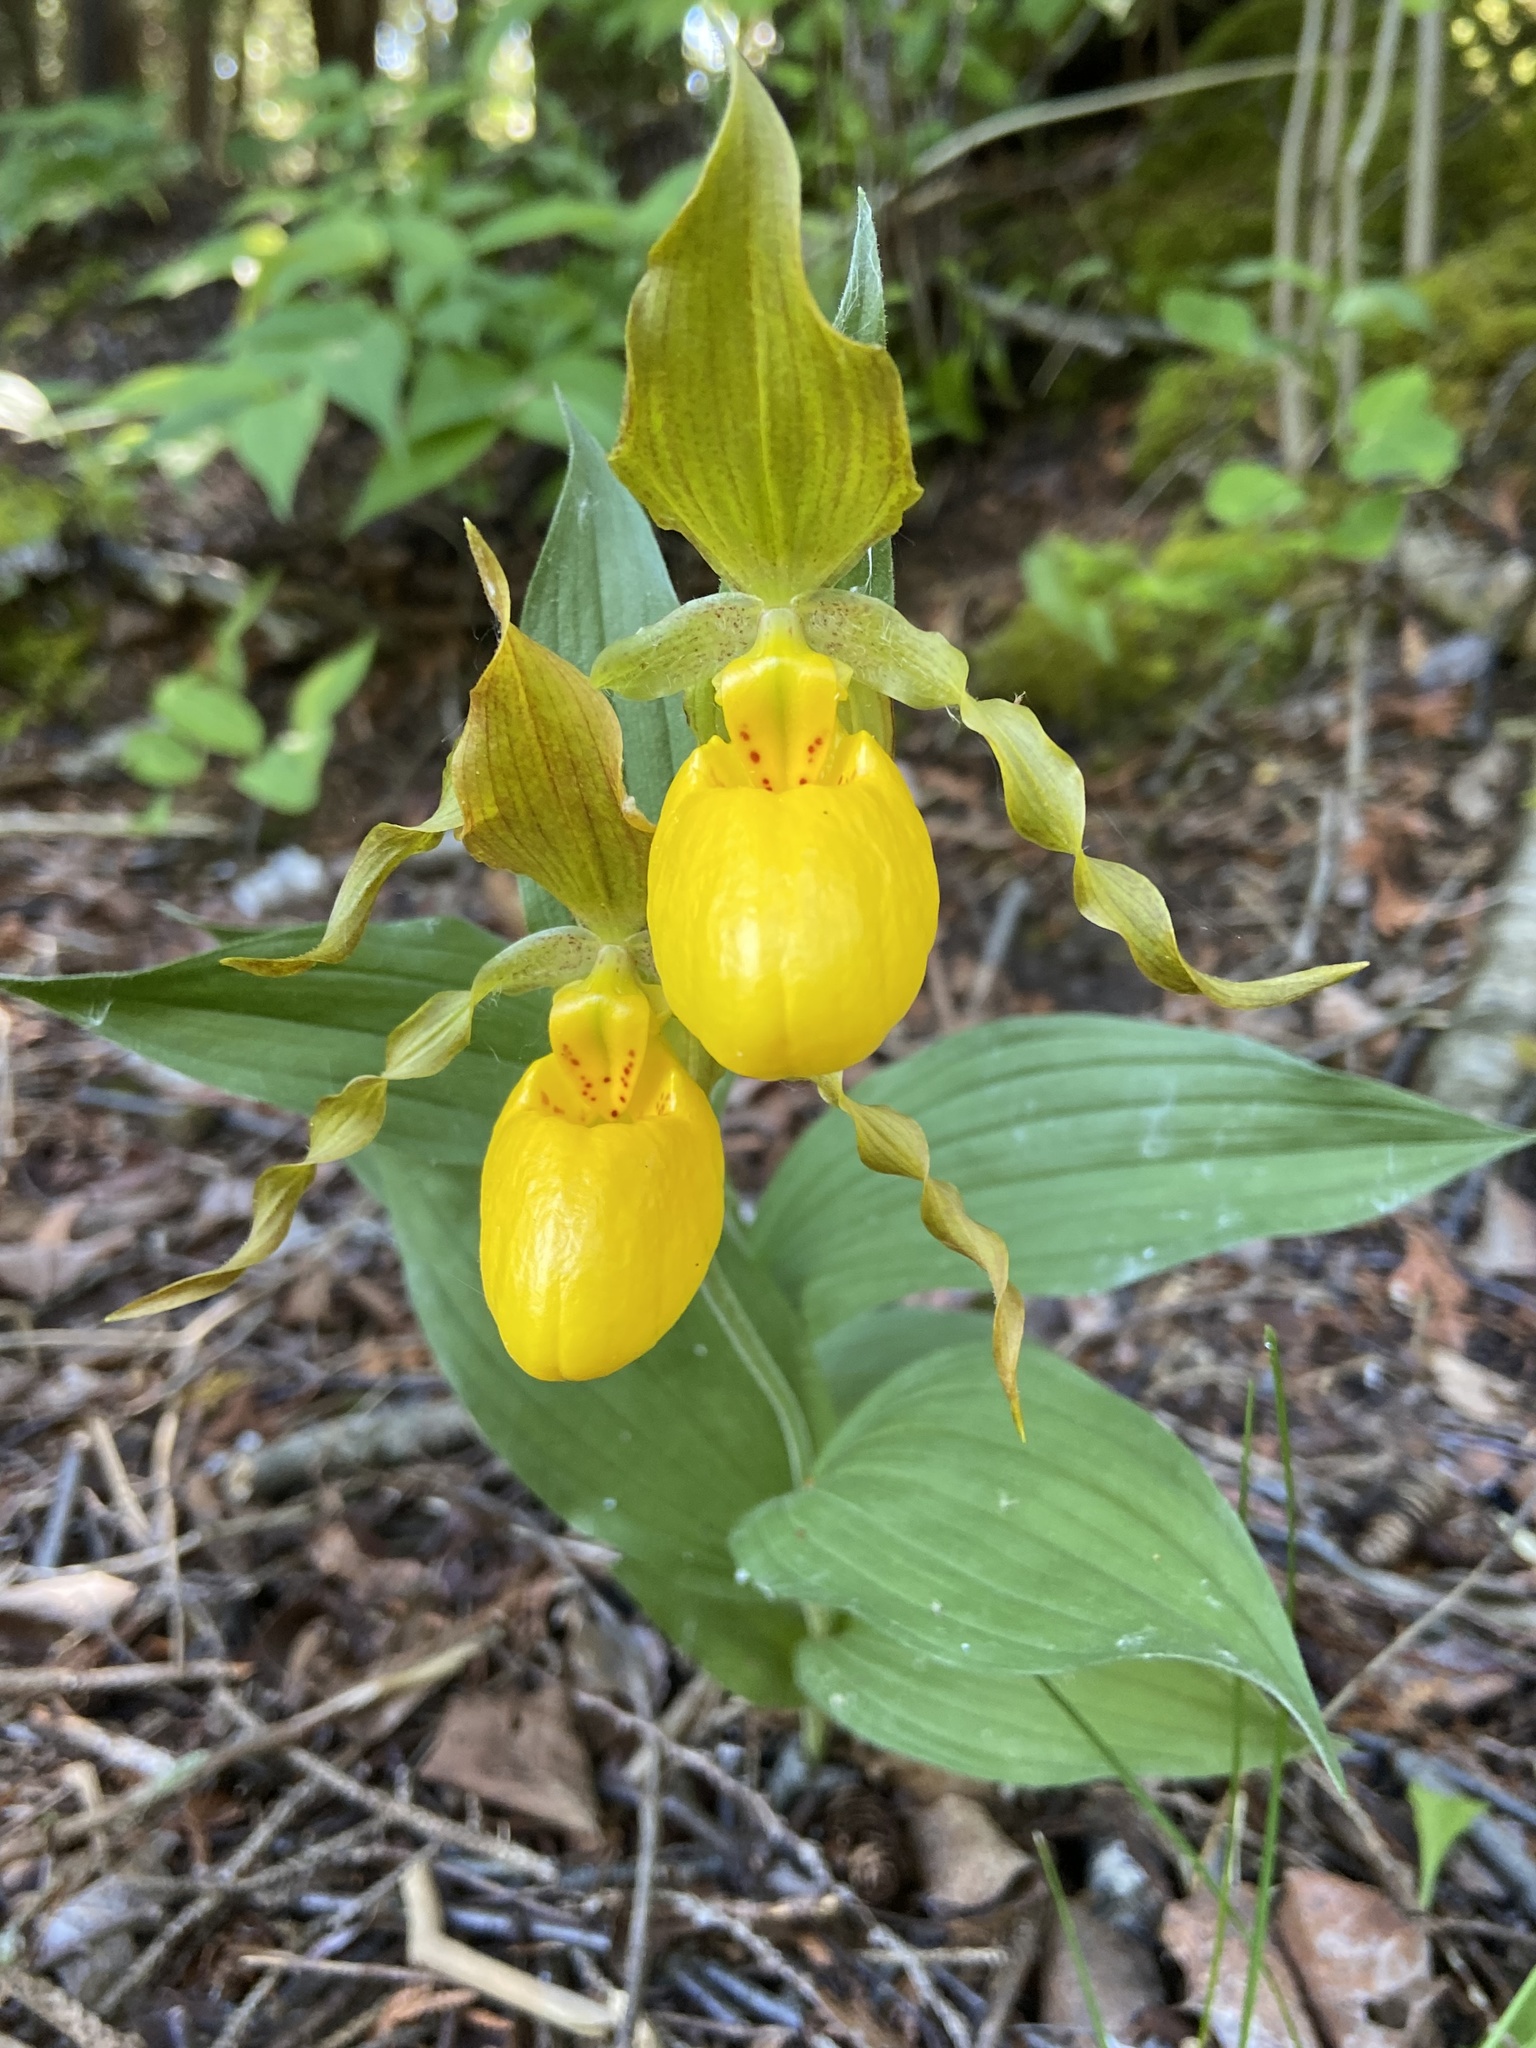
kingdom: Plantae
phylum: Tracheophyta
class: Liliopsida
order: Asparagales
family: Orchidaceae
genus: Cypripedium
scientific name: Cypripedium parviflorum
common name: American yellow lady's-slipper
